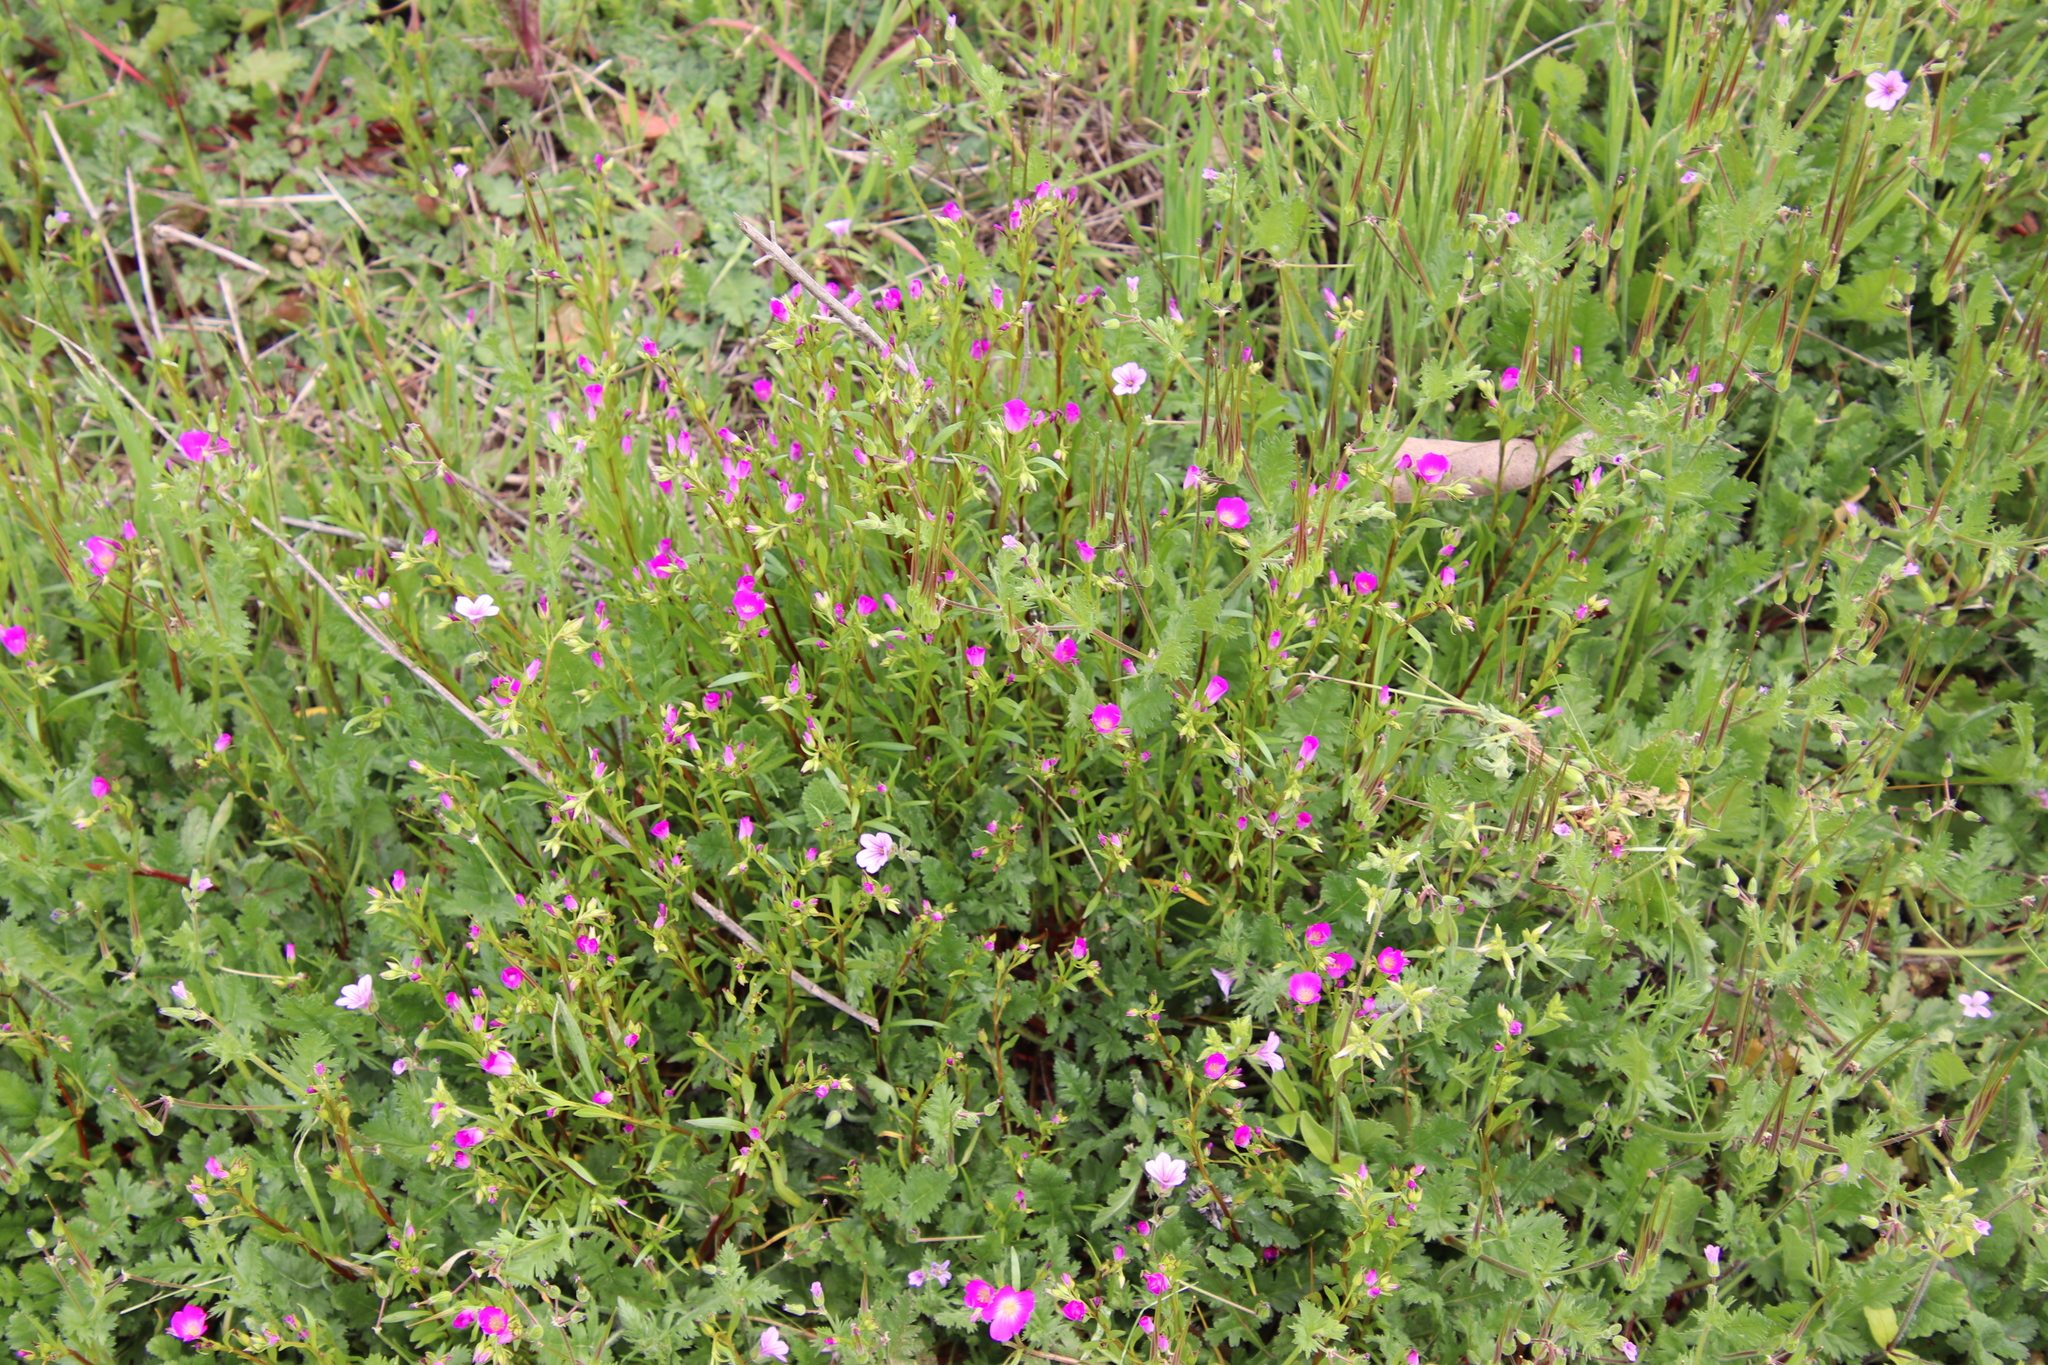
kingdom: Plantae
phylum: Tracheophyta
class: Magnoliopsida
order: Caryophyllales
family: Montiaceae
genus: Calandrinia
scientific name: Calandrinia menziesii
